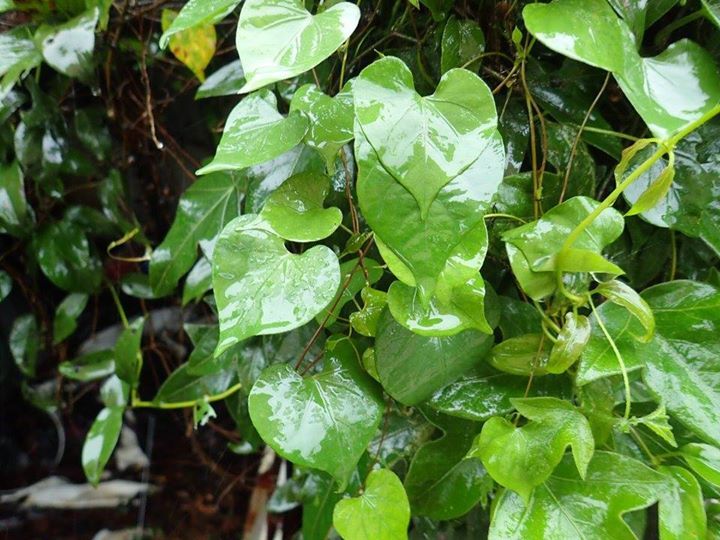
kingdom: Plantae
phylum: Tracheophyta
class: Magnoliopsida
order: Solanales
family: Convolvulaceae
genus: Ipomoea
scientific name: Ipomoea obscura
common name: Obscure morning-glory
